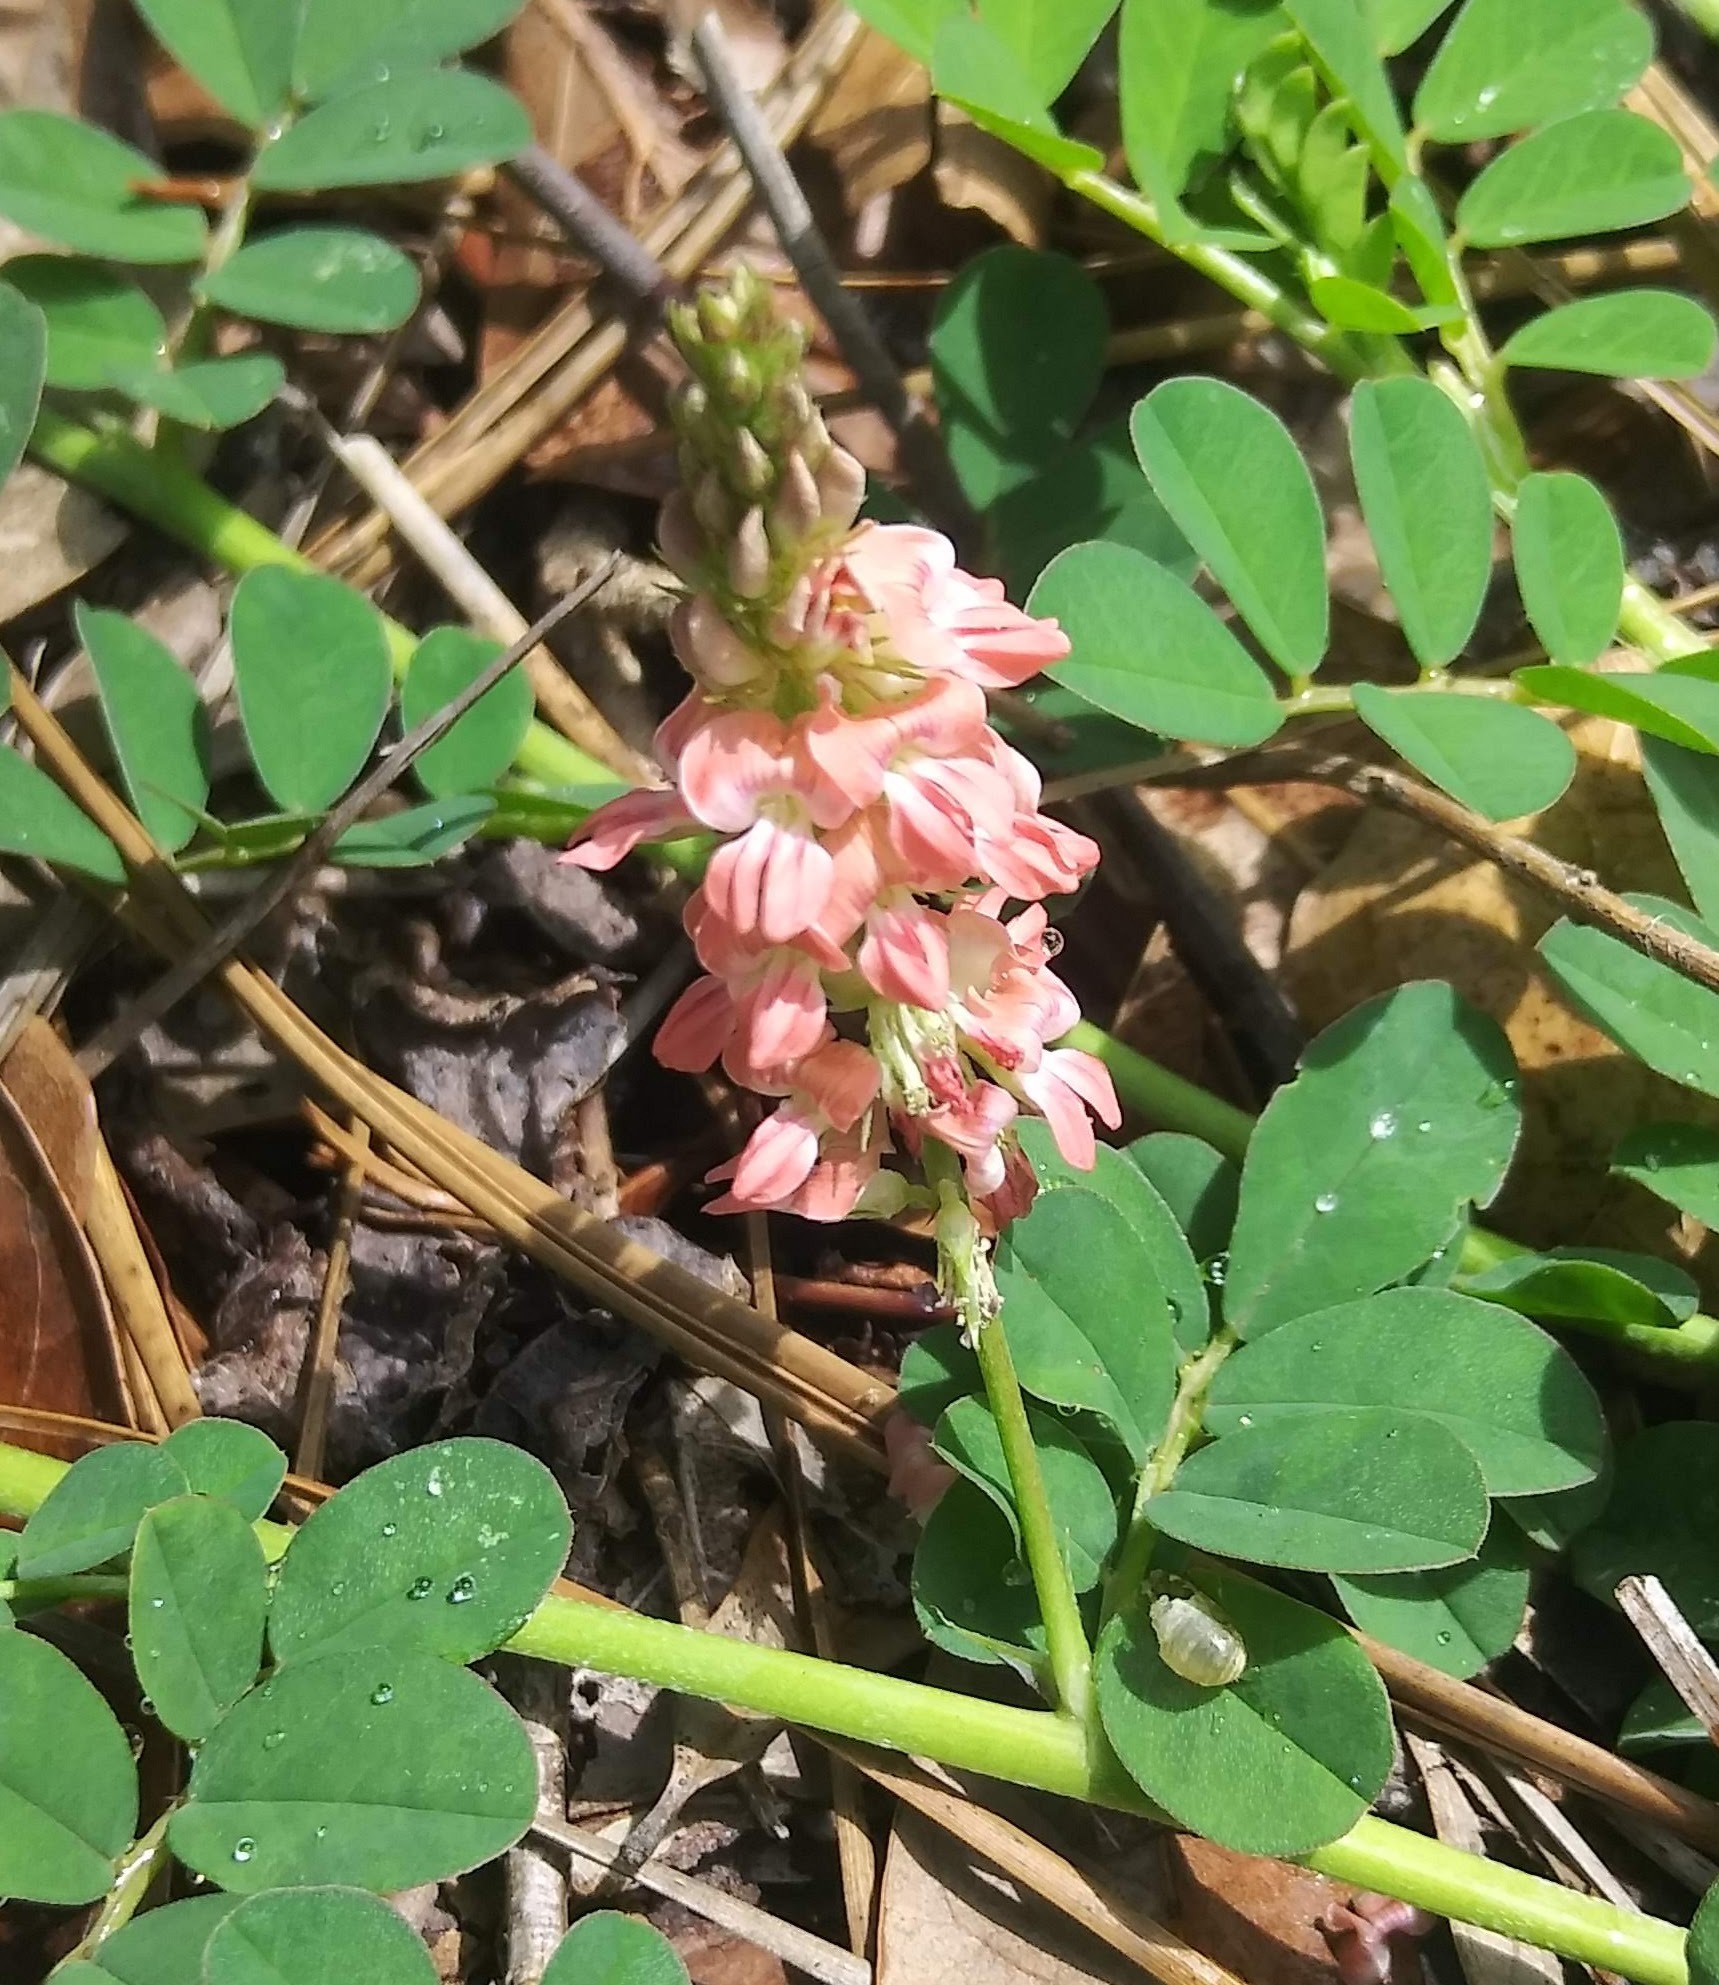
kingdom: Plantae
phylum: Tracheophyta
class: Magnoliopsida
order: Fabales
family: Fabaceae
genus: Indigofera
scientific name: Indigofera spicata
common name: Creeping indigo
